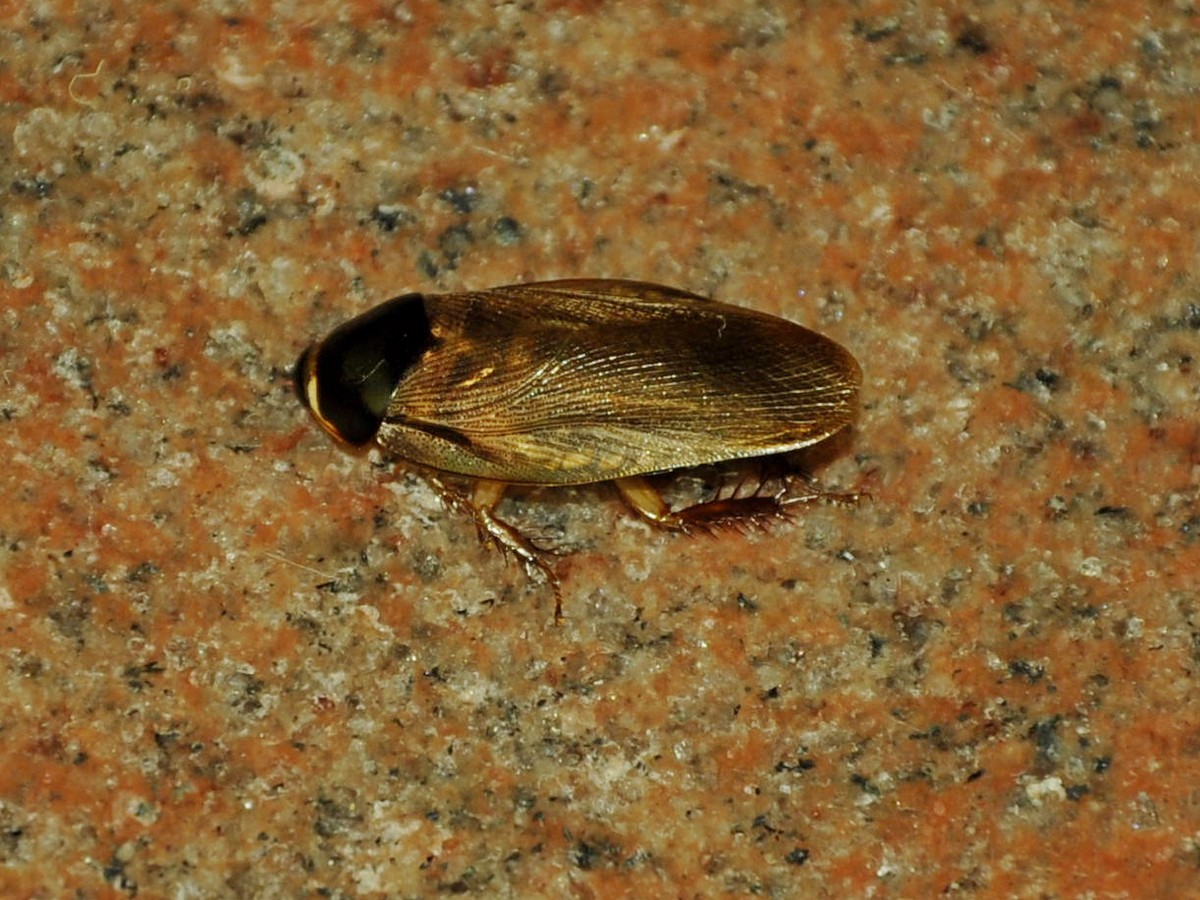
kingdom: Animalia
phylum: Arthropoda
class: Insecta
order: Blattodea
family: Blaberidae
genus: Pycnoscelus
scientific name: Pycnoscelus surinamensis
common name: Surinam cockroach
